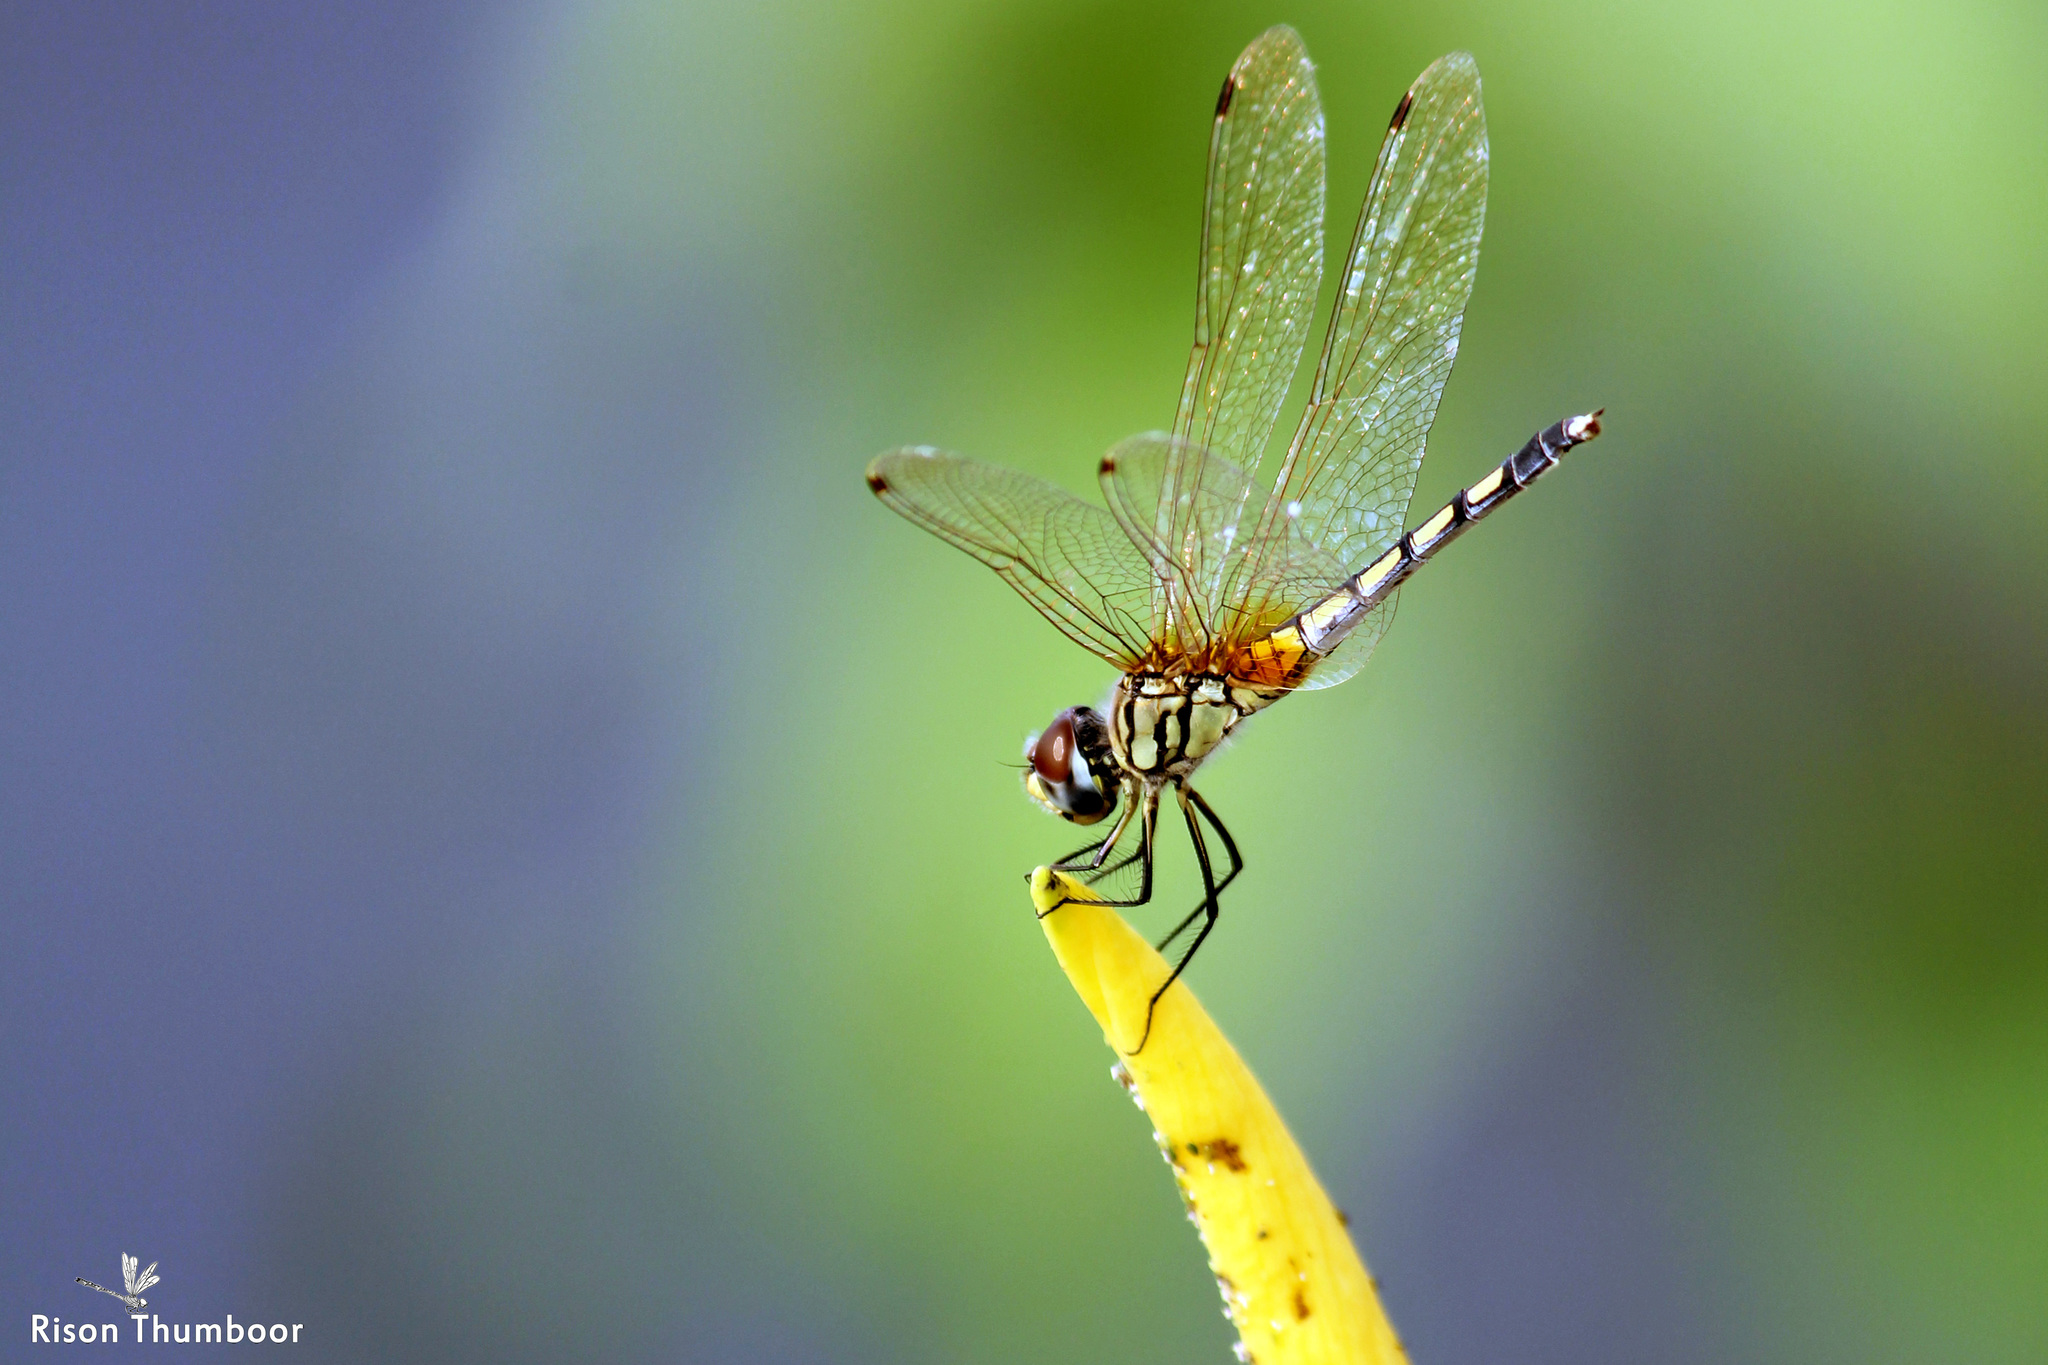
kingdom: Animalia
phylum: Arthropoda
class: Insecta
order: Odonata
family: Libellulidae
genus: Trithemis
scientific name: Trithemis pallidinervis
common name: Dancing dropwing
